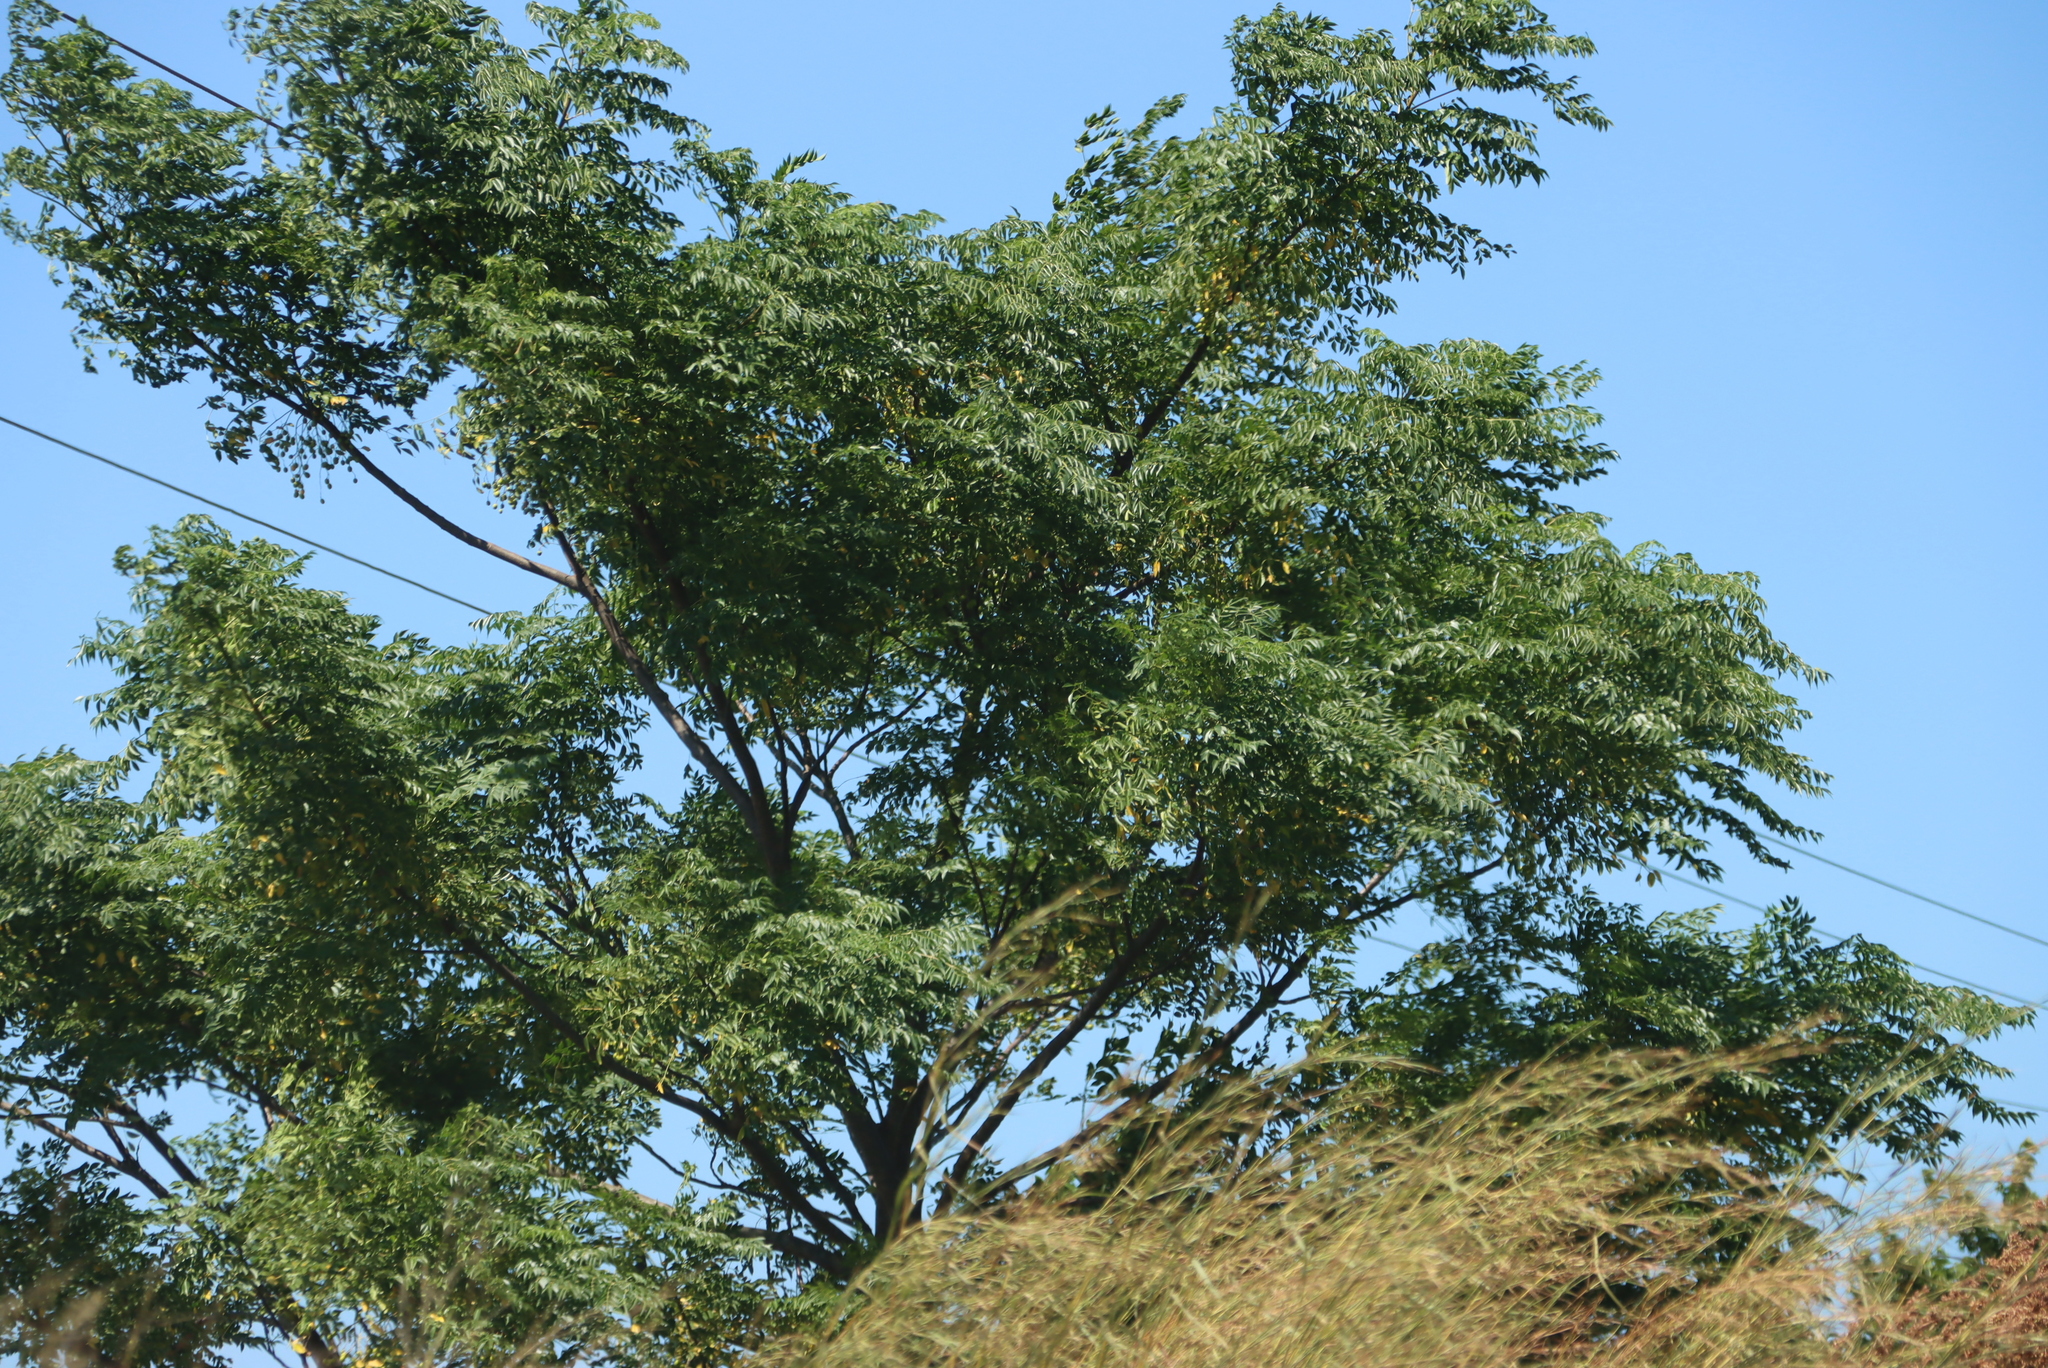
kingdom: Plantae
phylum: Tracheophyta
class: Magnoliopsida
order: Sapindales
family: Meliaceae
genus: Melia
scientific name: Melia azedarach
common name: Chinaberrytree
